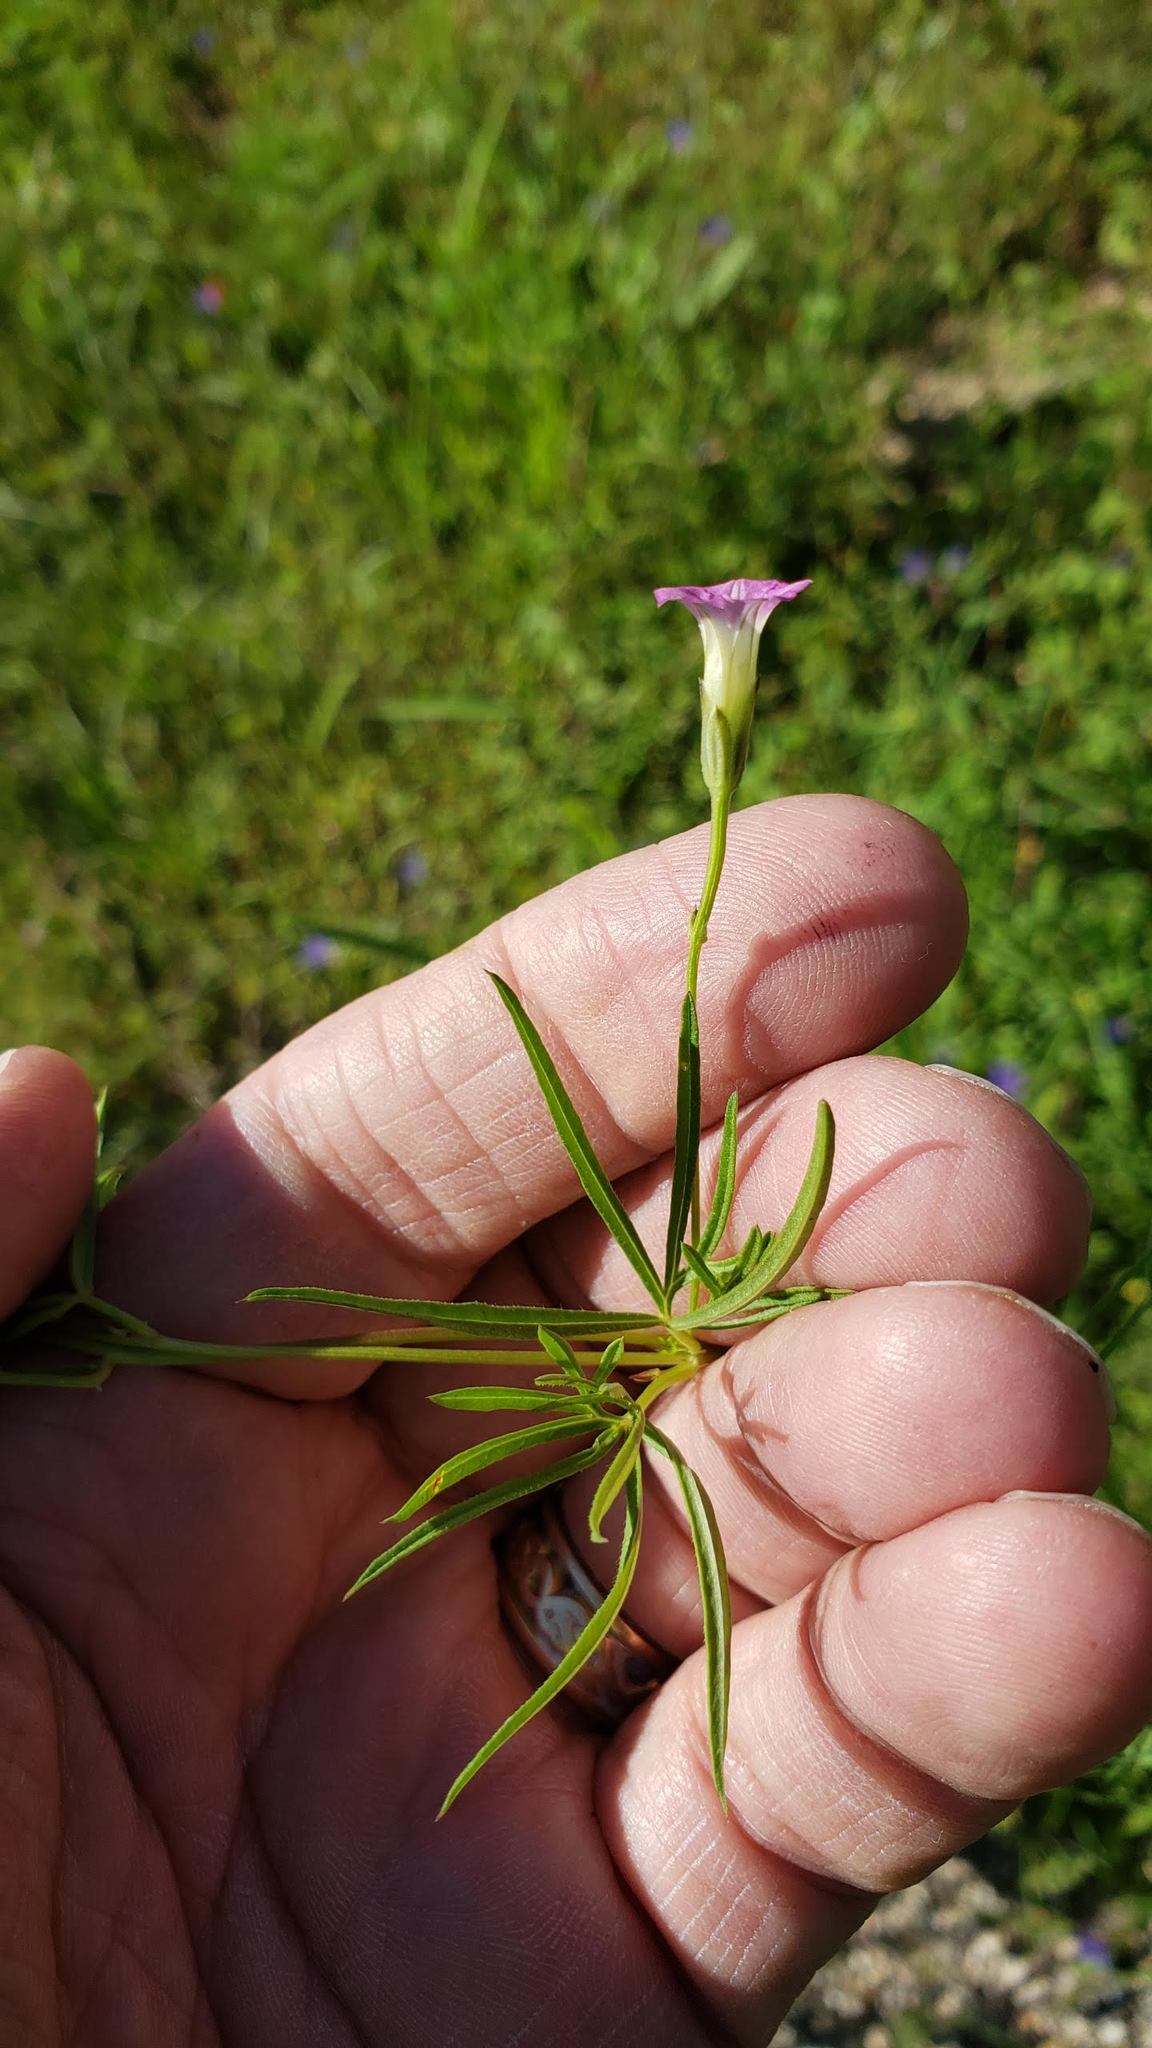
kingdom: Plantae
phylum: Tracheophyta
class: Magnoliopsida
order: Solanales
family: Convolvulaceae
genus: Ipomoea
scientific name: Ipomoea costellata
